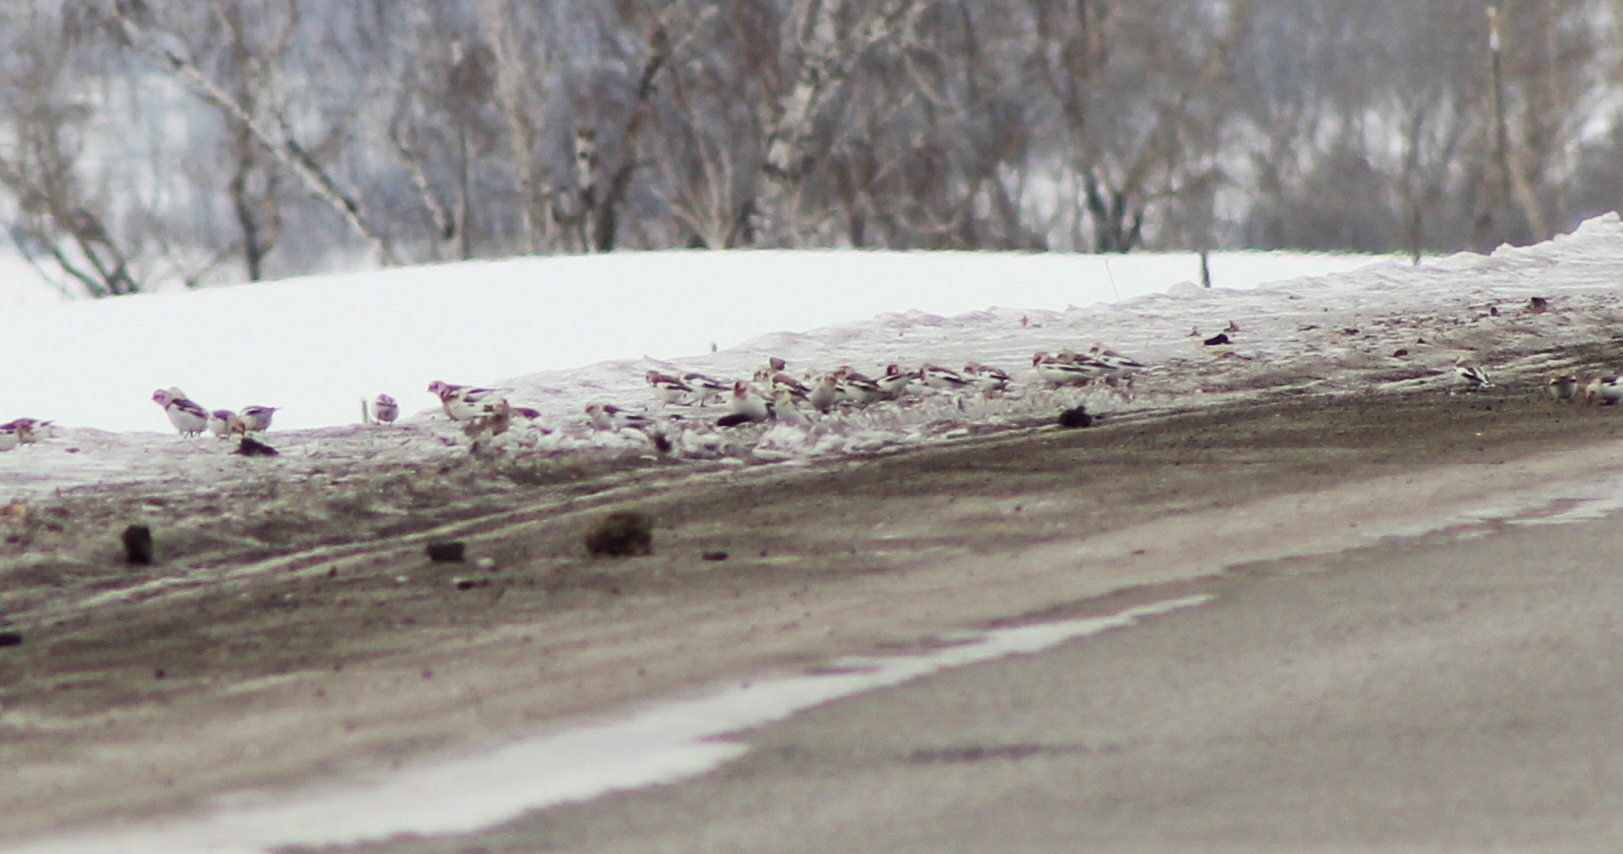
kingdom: Animalia
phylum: Chordata
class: Aves
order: Passeriformes
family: Calcariidae
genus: Plectrophenax
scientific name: Plectrophenax nivalis
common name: Snow bunting
